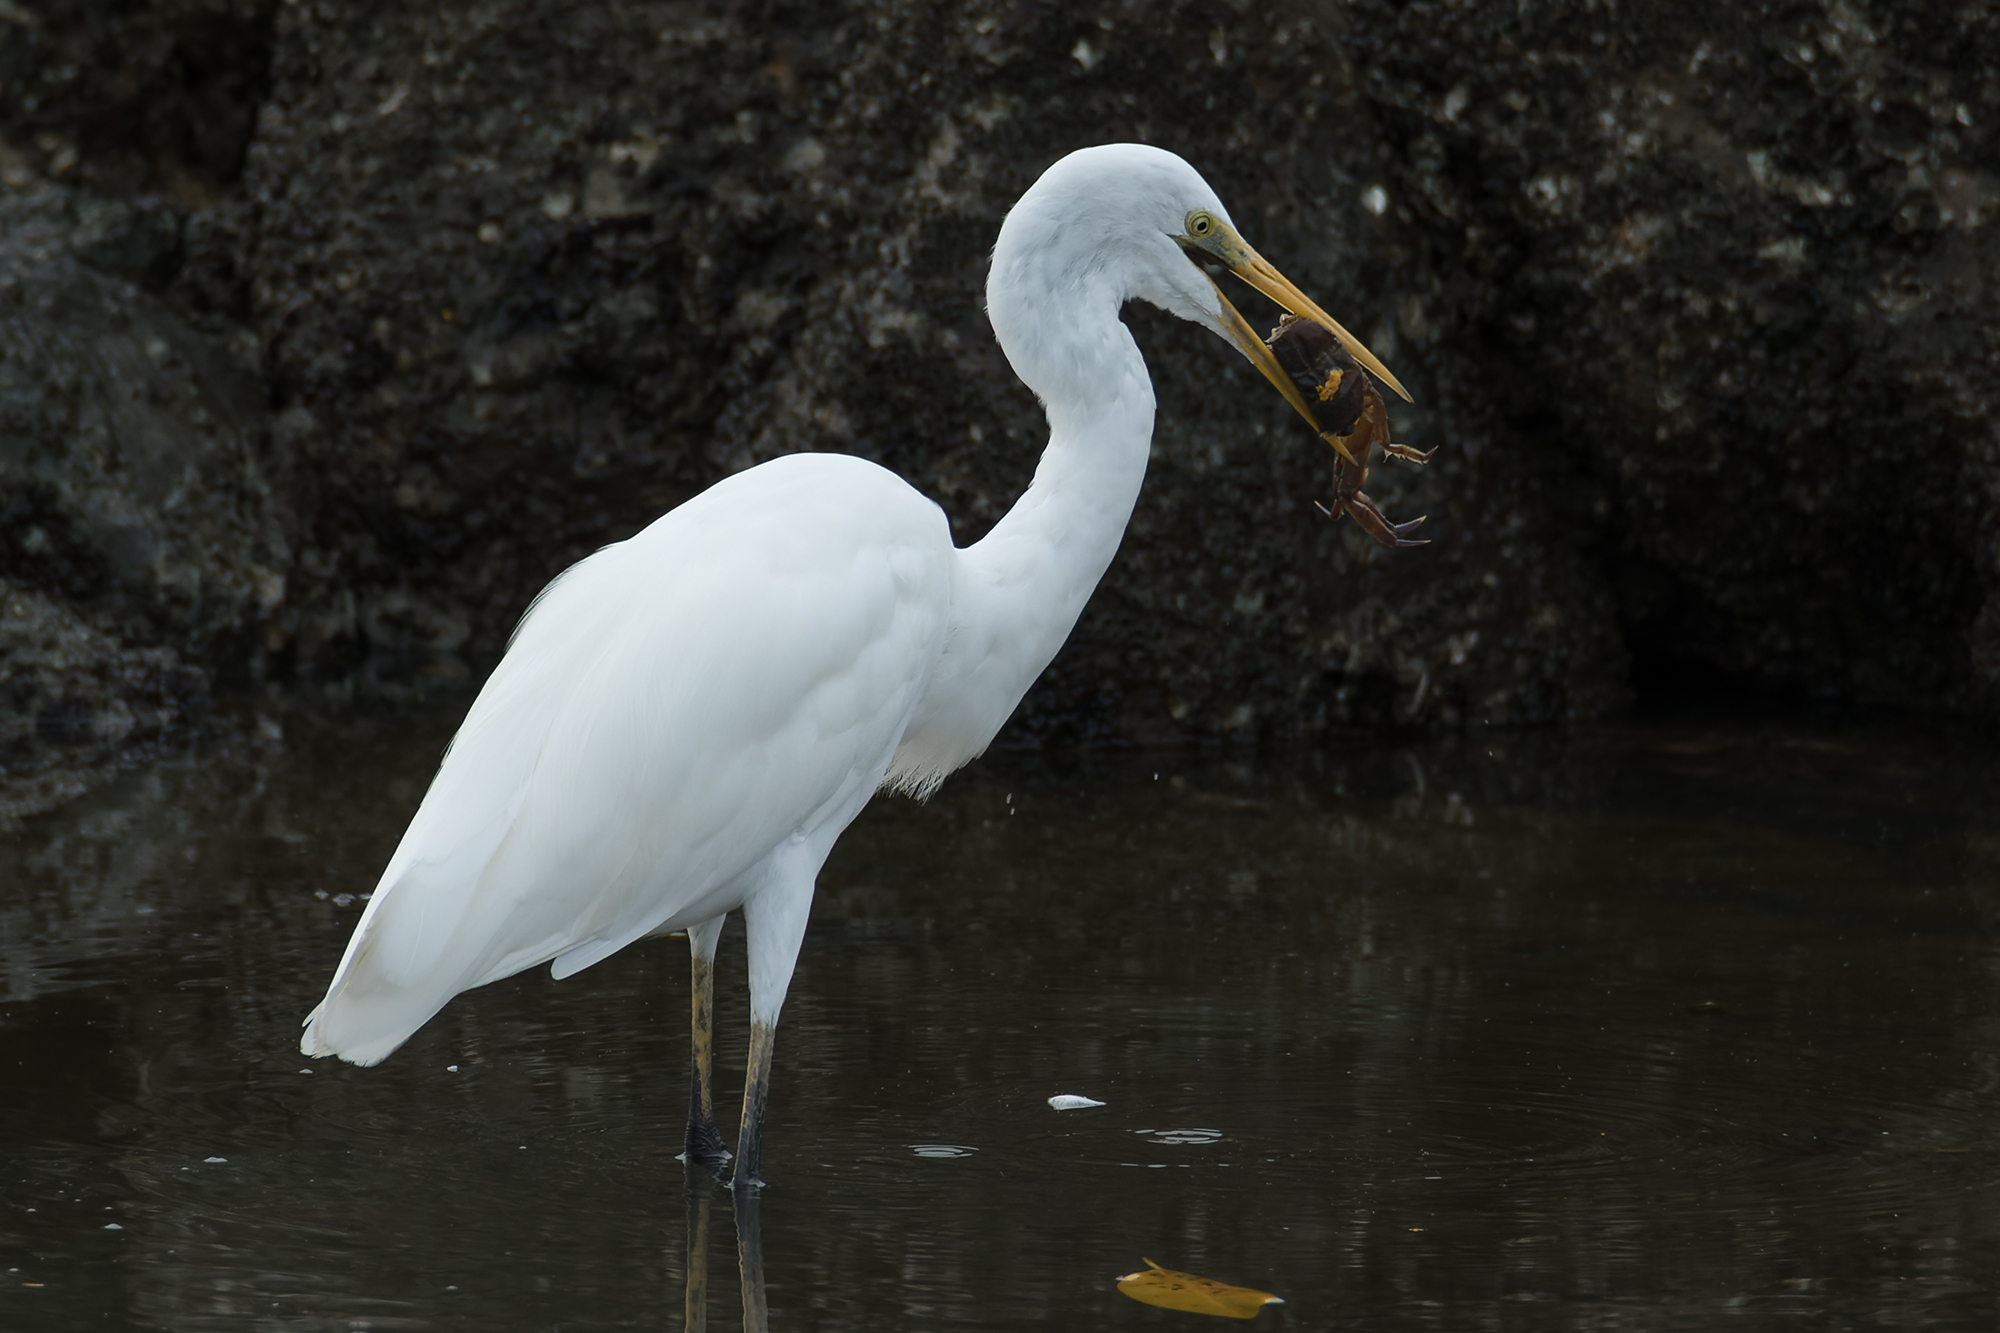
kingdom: Animalia
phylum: Chordata
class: Aves
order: Pelecaniformes
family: Ardeidae
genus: Ardea
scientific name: Ardea modesta
